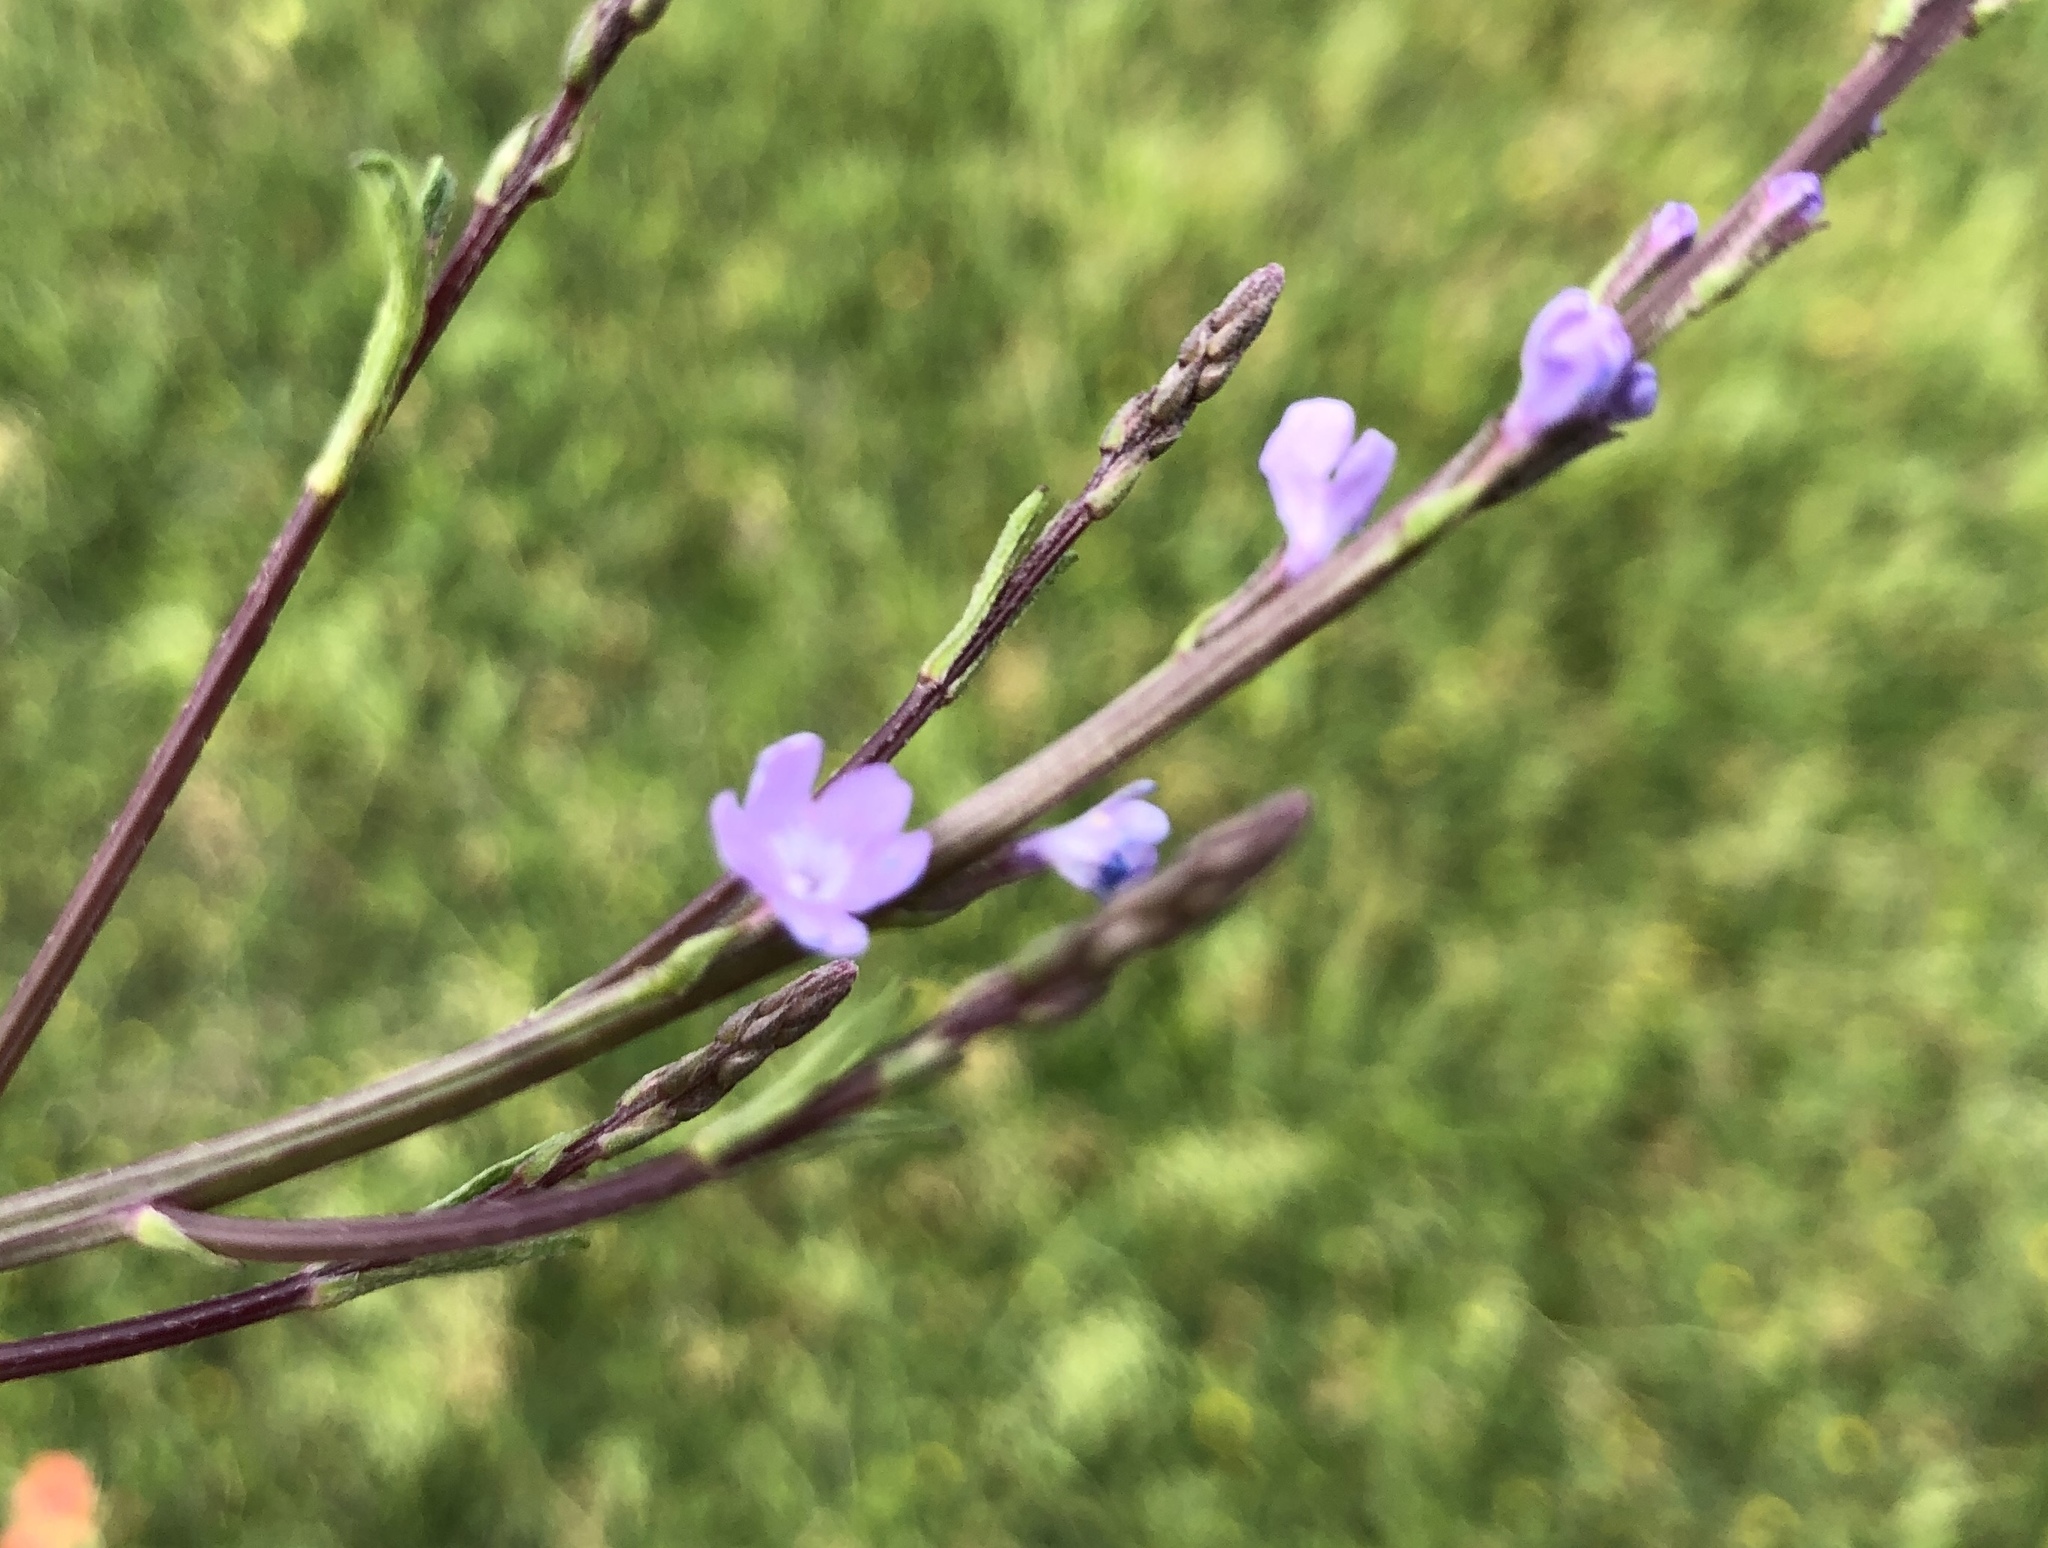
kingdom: Plantae
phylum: Tracheophyta
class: Magnoliopsida
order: Lamiales
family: Verbenaceae
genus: Verbena
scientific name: Verbena halei
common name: Texas vervain
